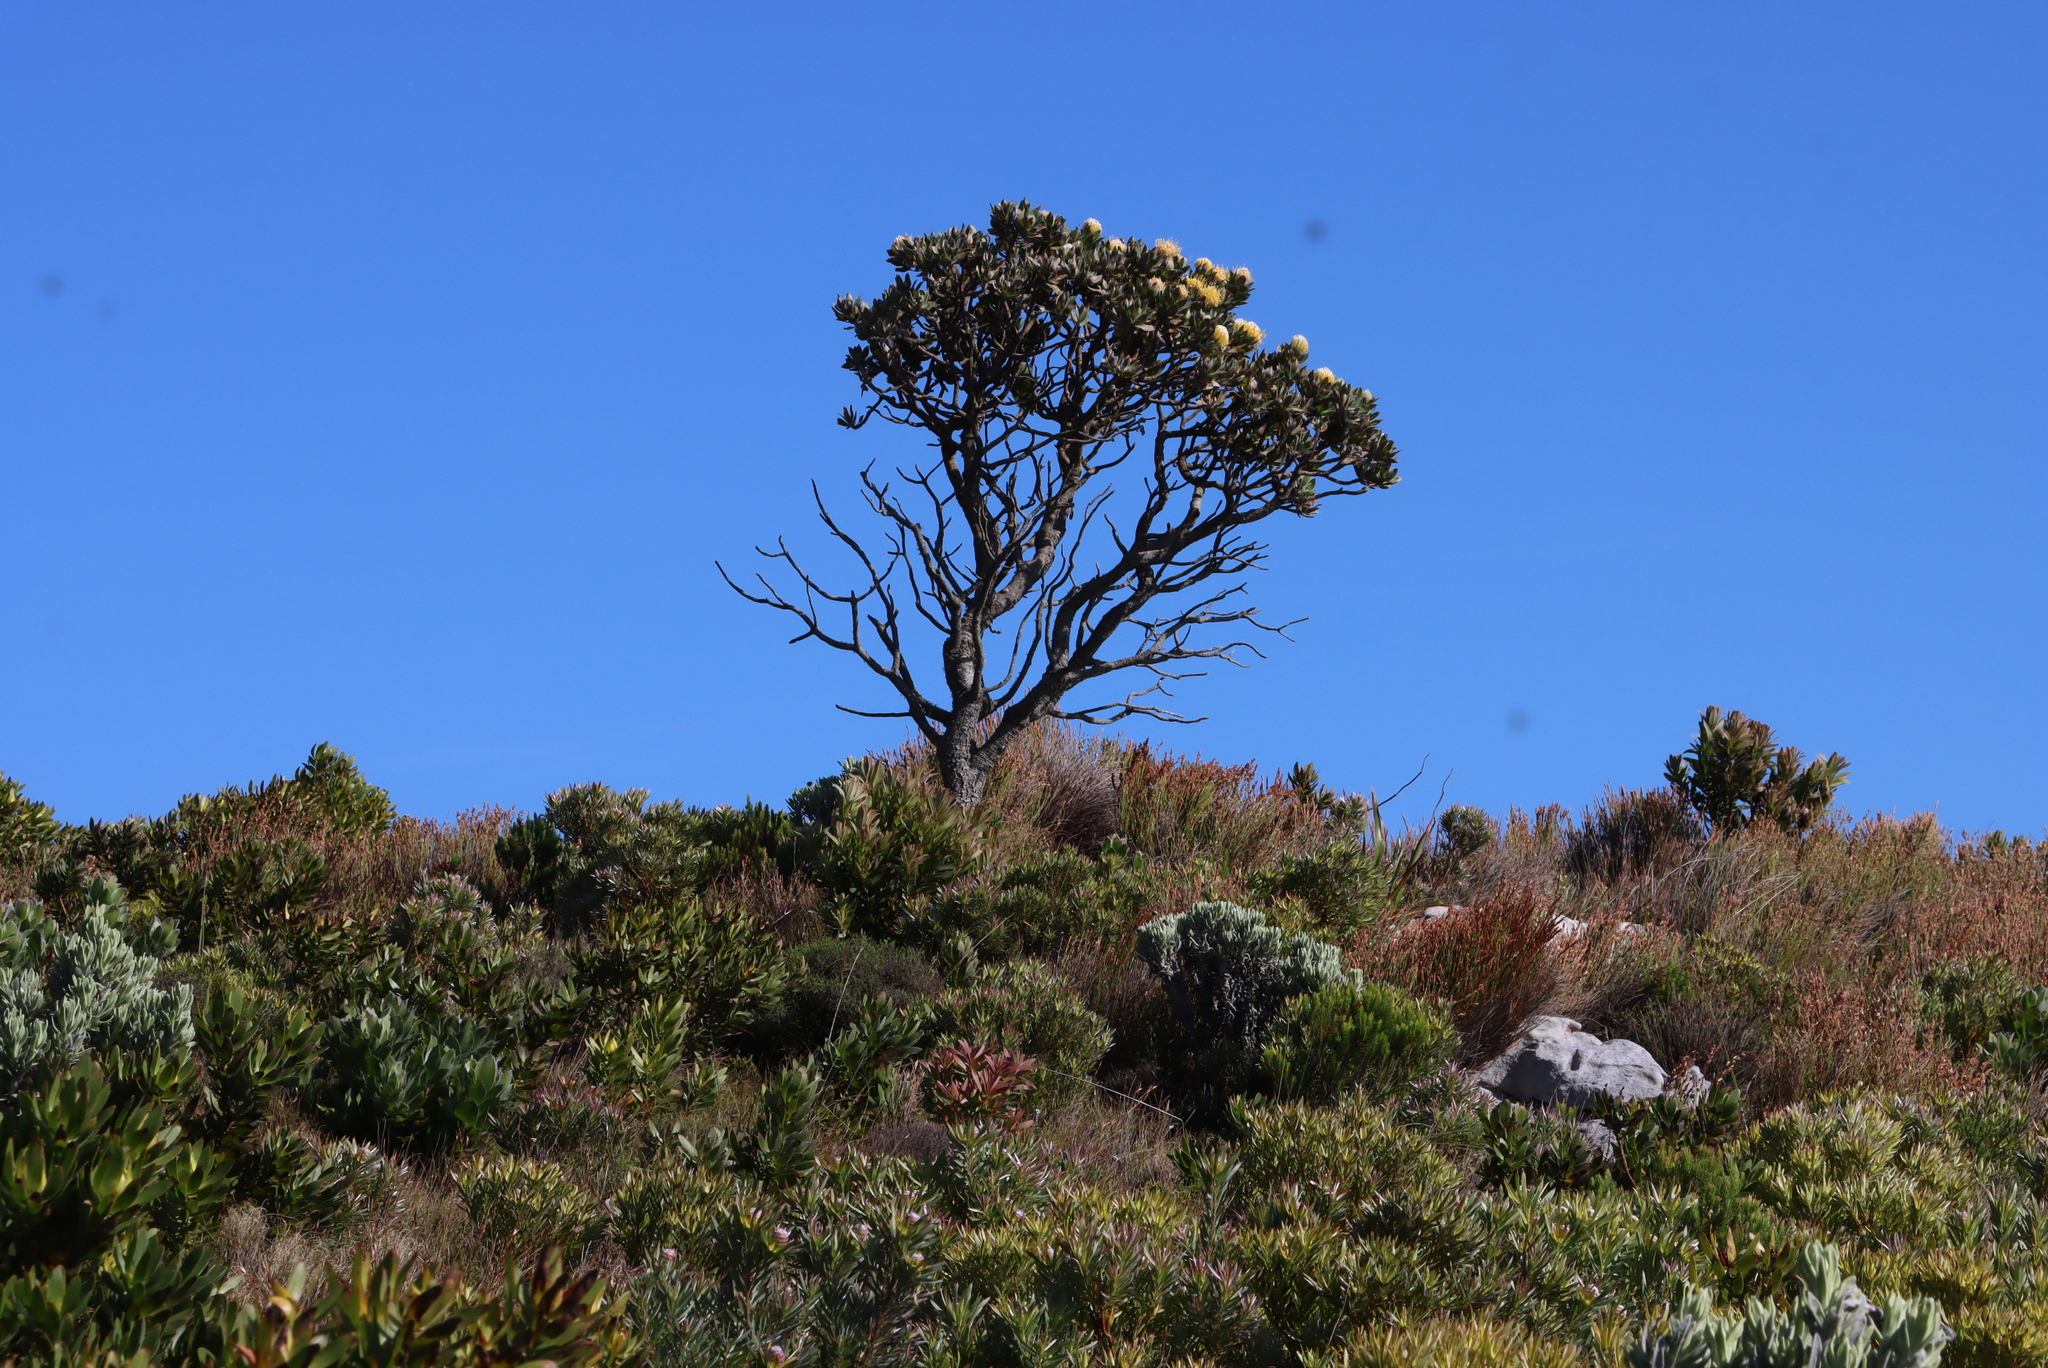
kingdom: Plantae
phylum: Tracheophyta
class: Magnoliopsida
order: Proteales
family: Proteaceae
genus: Leucospermum
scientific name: Leucospermum conocarpodendron
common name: Tree pincushion
